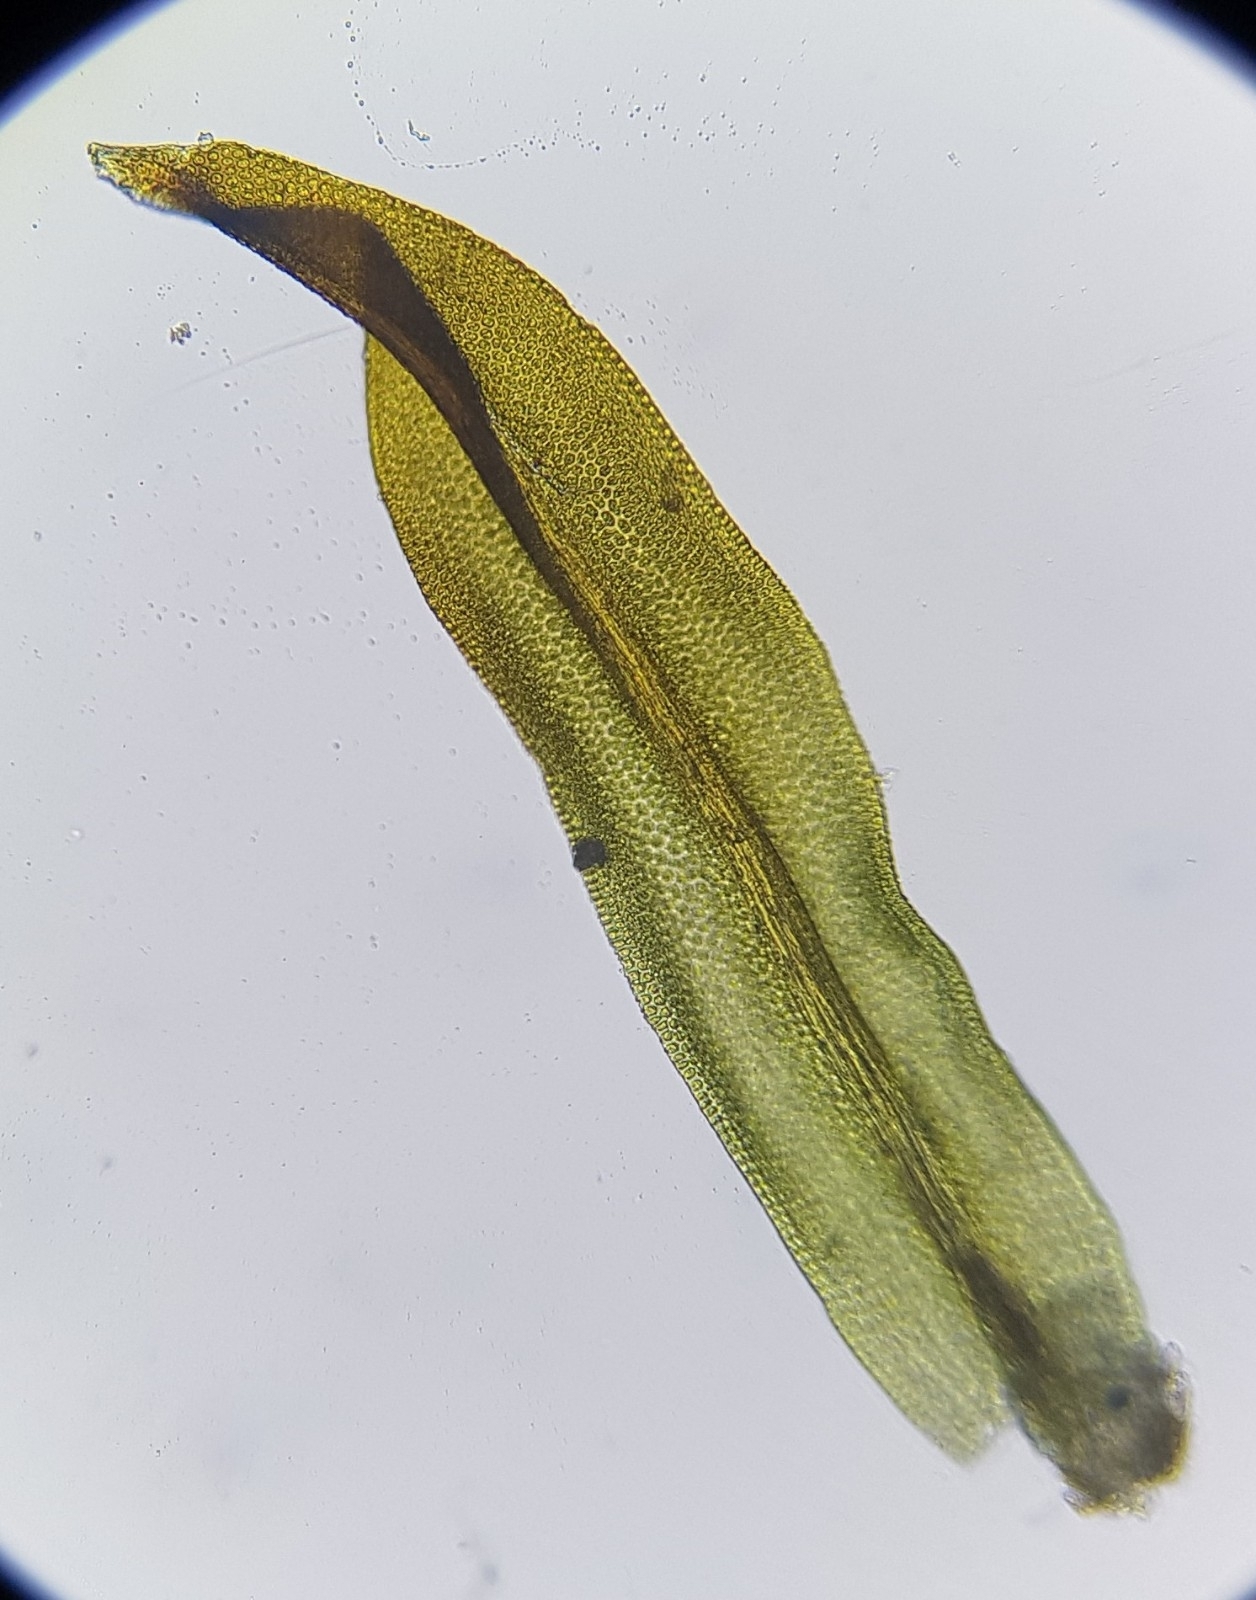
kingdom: Plantae
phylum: Bryophyta
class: Bryopsida
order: Orthotrichales
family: Orthotrichaceae
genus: Zygodon
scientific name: Zygodon viridissimus
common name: Green yoke moss
